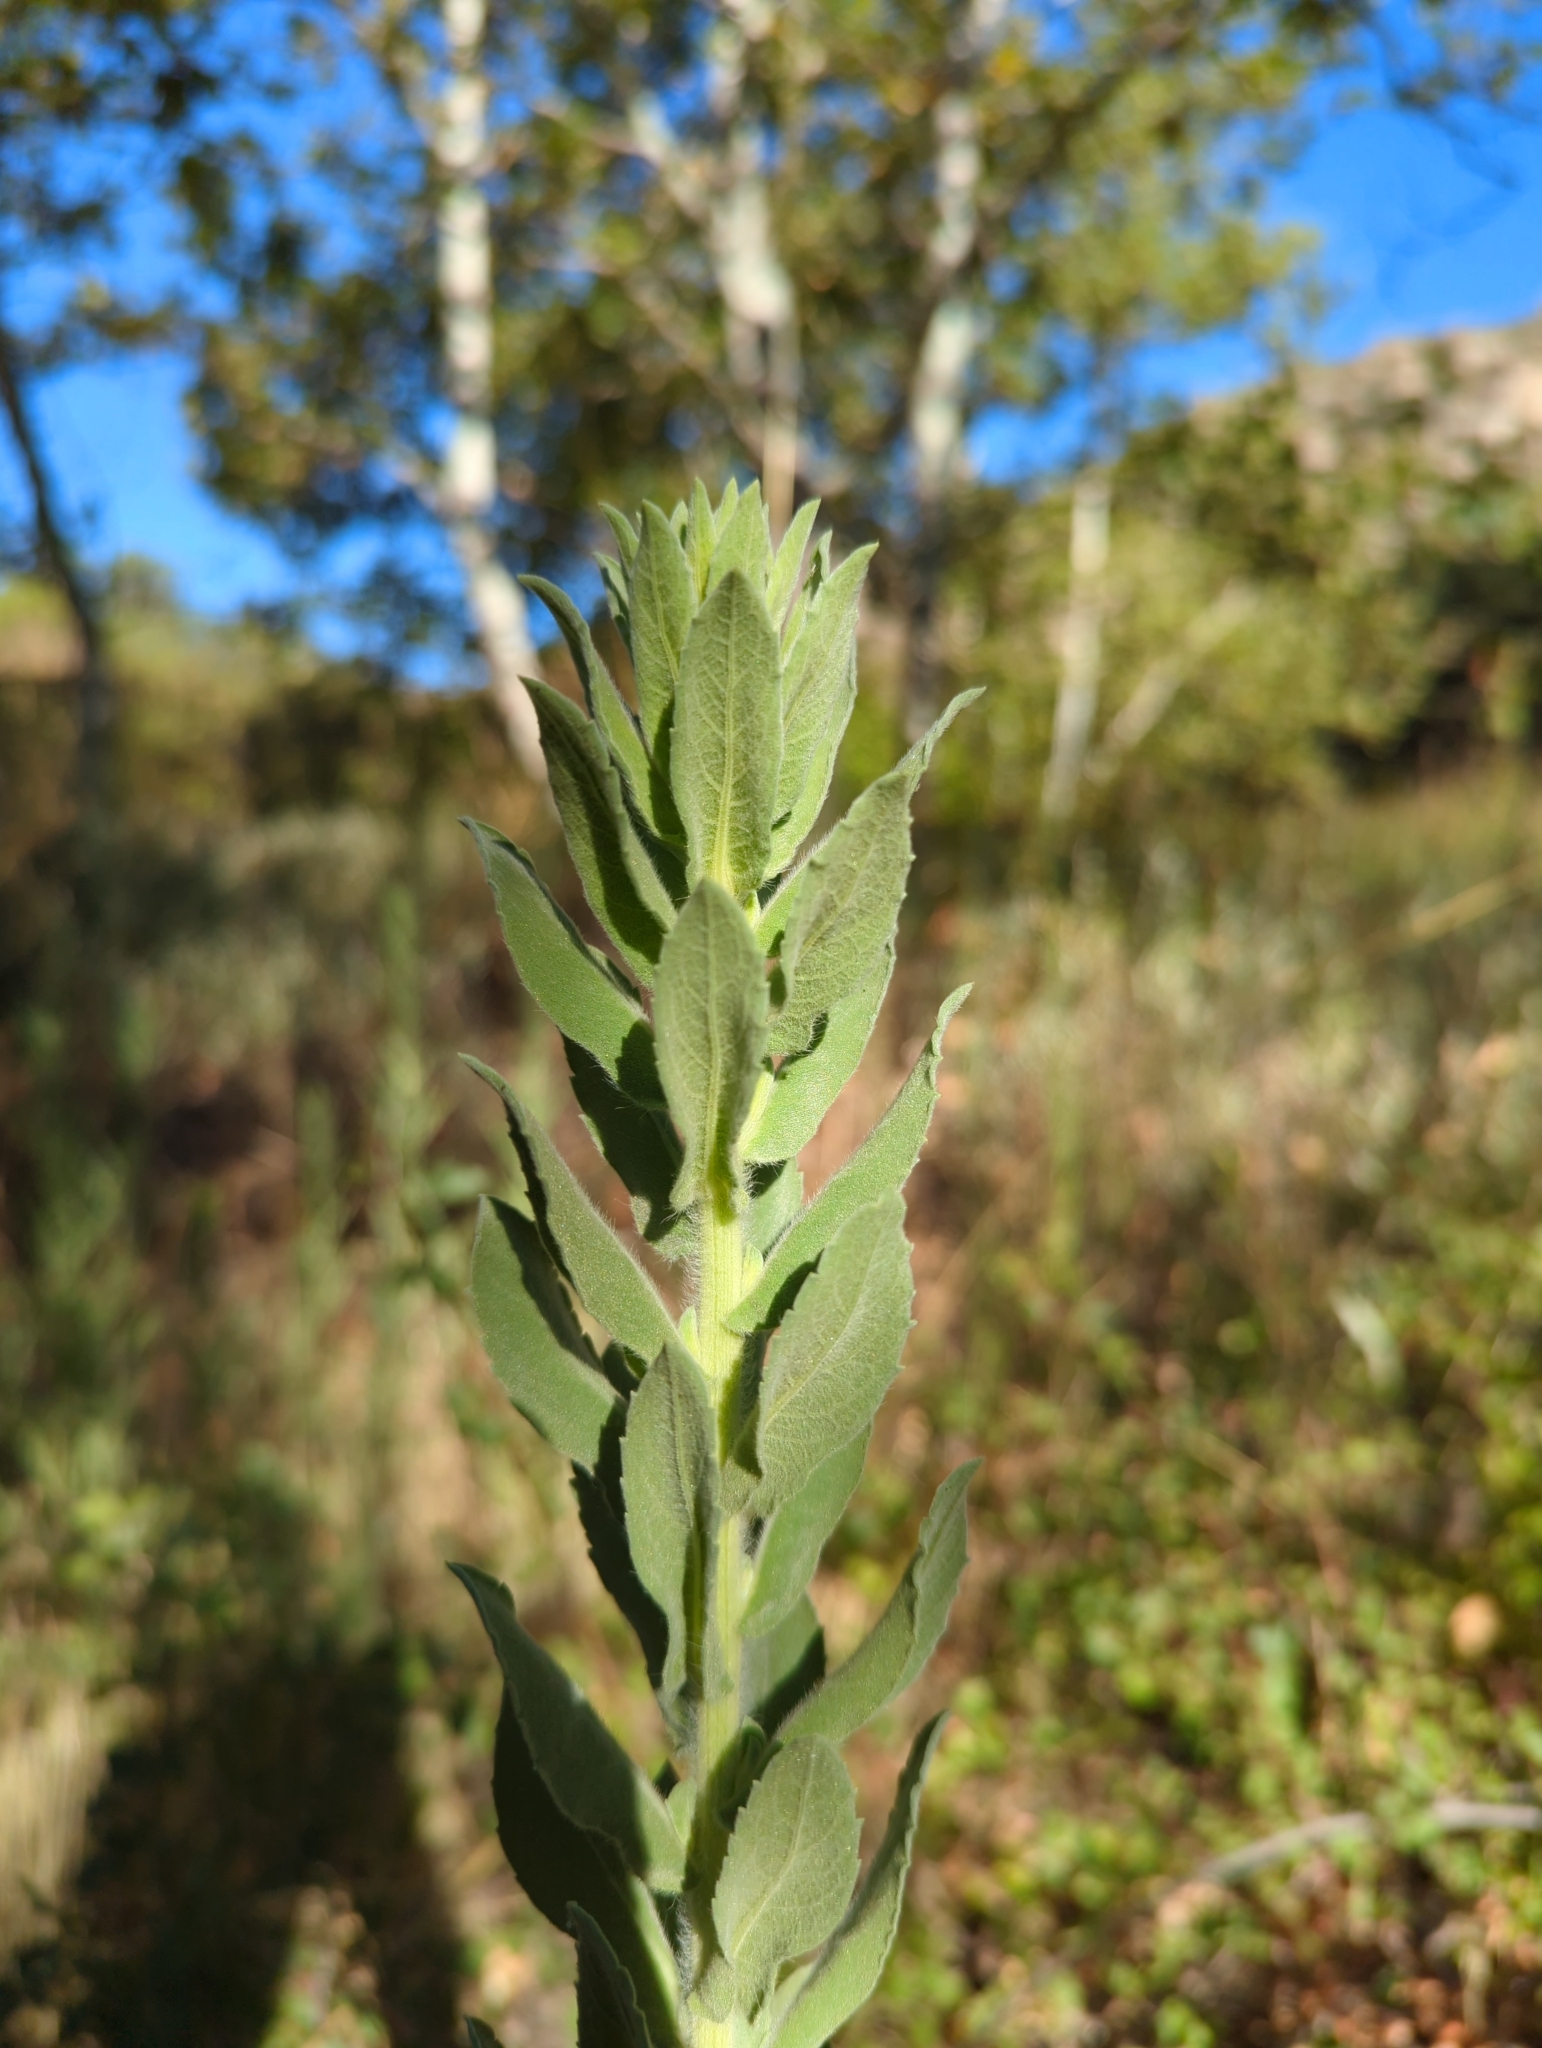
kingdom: Plantae
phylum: Tracheophyta
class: Magnoliopsida
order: Asterales
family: Asteraceae
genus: Heterotheca
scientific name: Heterotheca grandiflora
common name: Telegraphweed
